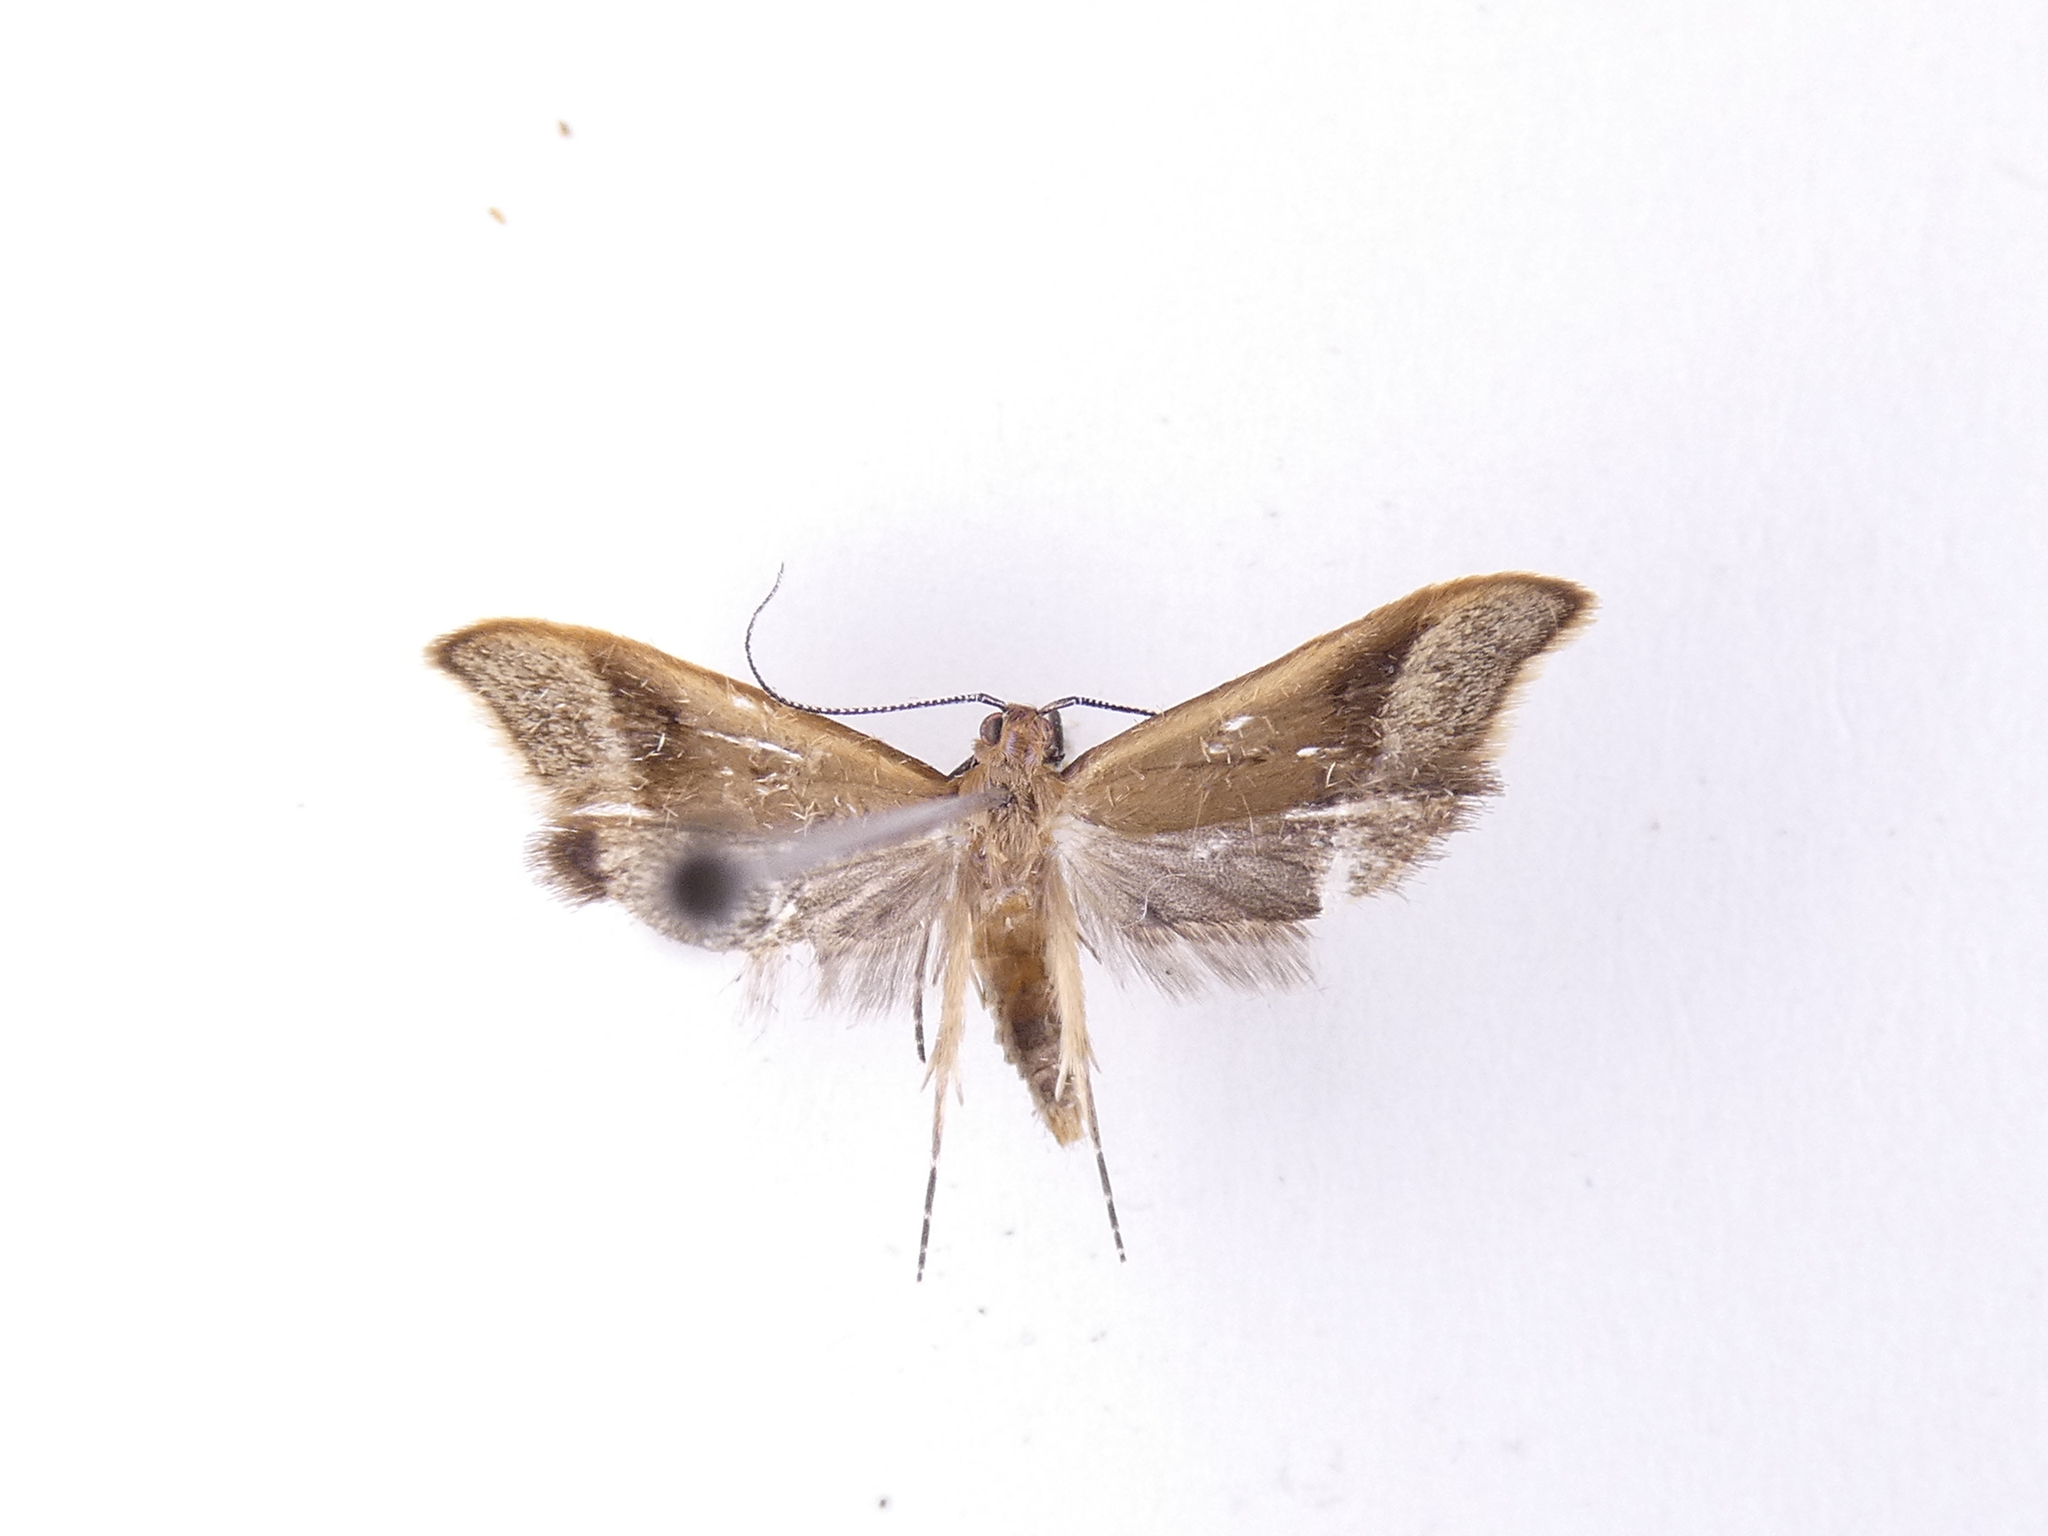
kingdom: Animalia
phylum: Arthropoda
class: Insecta
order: Lepidoptera
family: Oecophoridae
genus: Gymnobathra
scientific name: Gymnobathra hyetodes
